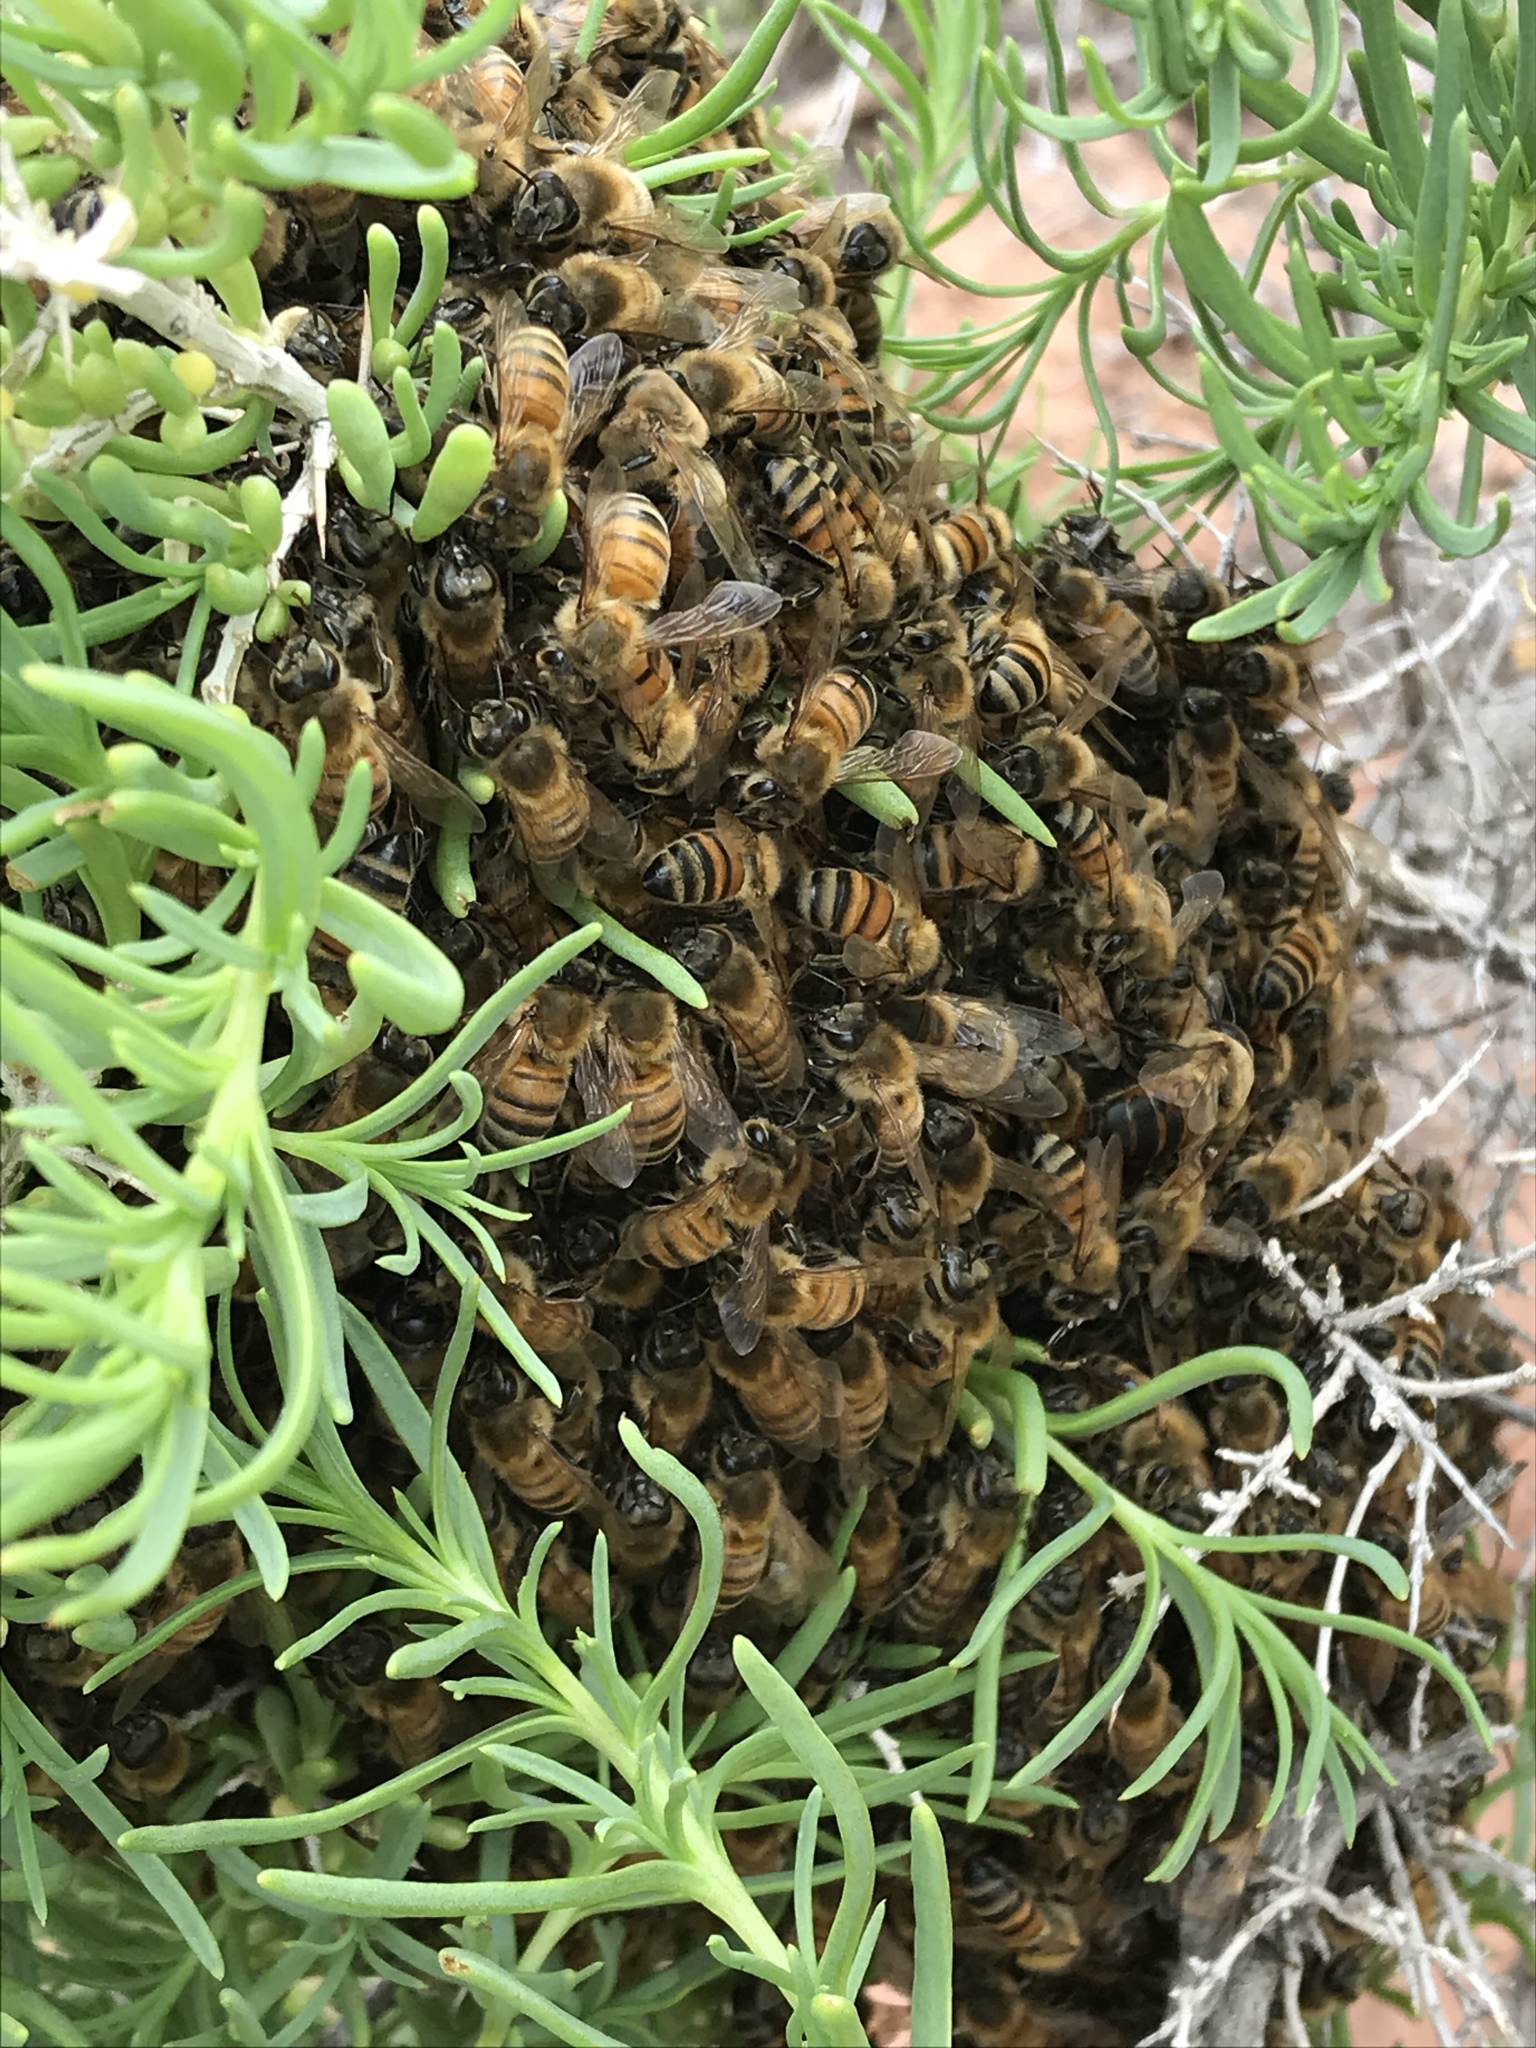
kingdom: Animalia
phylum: Arthropoda
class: Insecta
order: Hymenoptera
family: Apidae
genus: Apis
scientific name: Apis mellifera
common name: Honey bee
